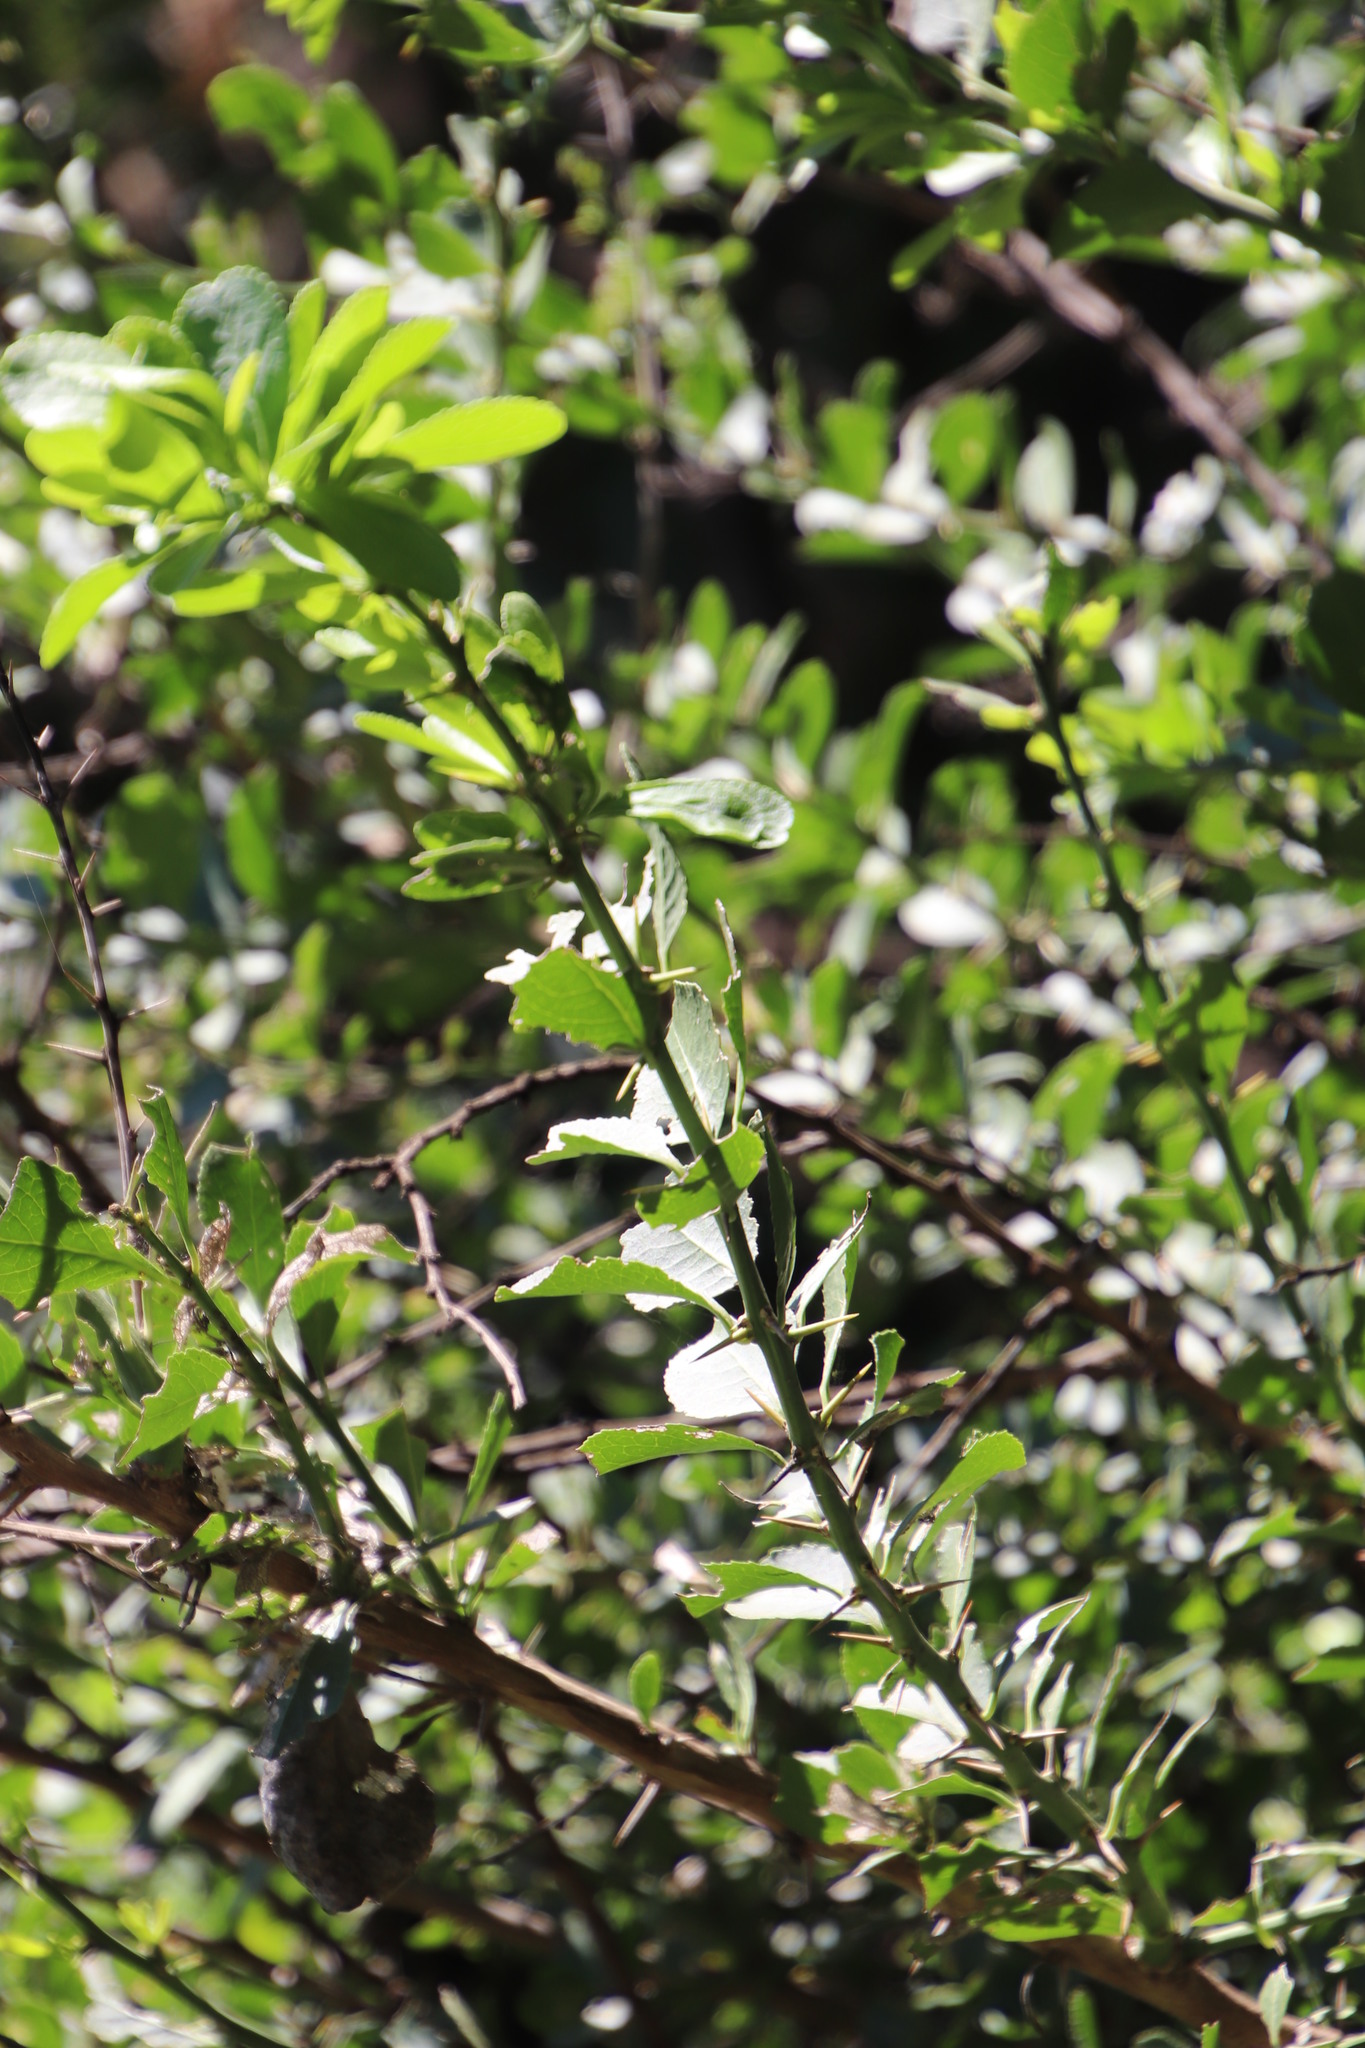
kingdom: Plantae
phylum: Tracheophyta
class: Magnoliopsida
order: Celastrales
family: Celastraceae
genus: Gymnosporia
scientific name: Gymnosporia buxifolia
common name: Common spike-thorn
